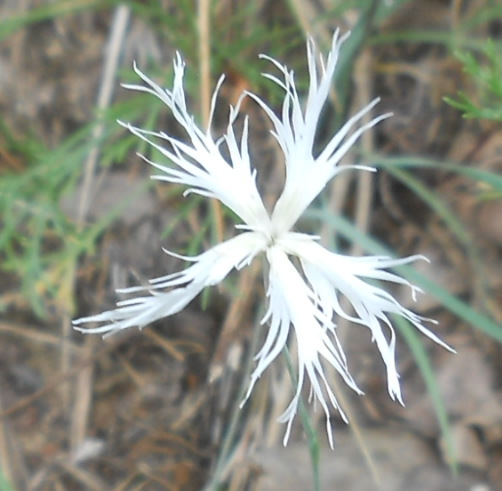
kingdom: Plantae
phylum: Tracheophyta
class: Magnoliopsida
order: Caryophyllales
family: Caryophyllaceae
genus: Dianthus
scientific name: Dianthus arenarius
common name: Stone pink
